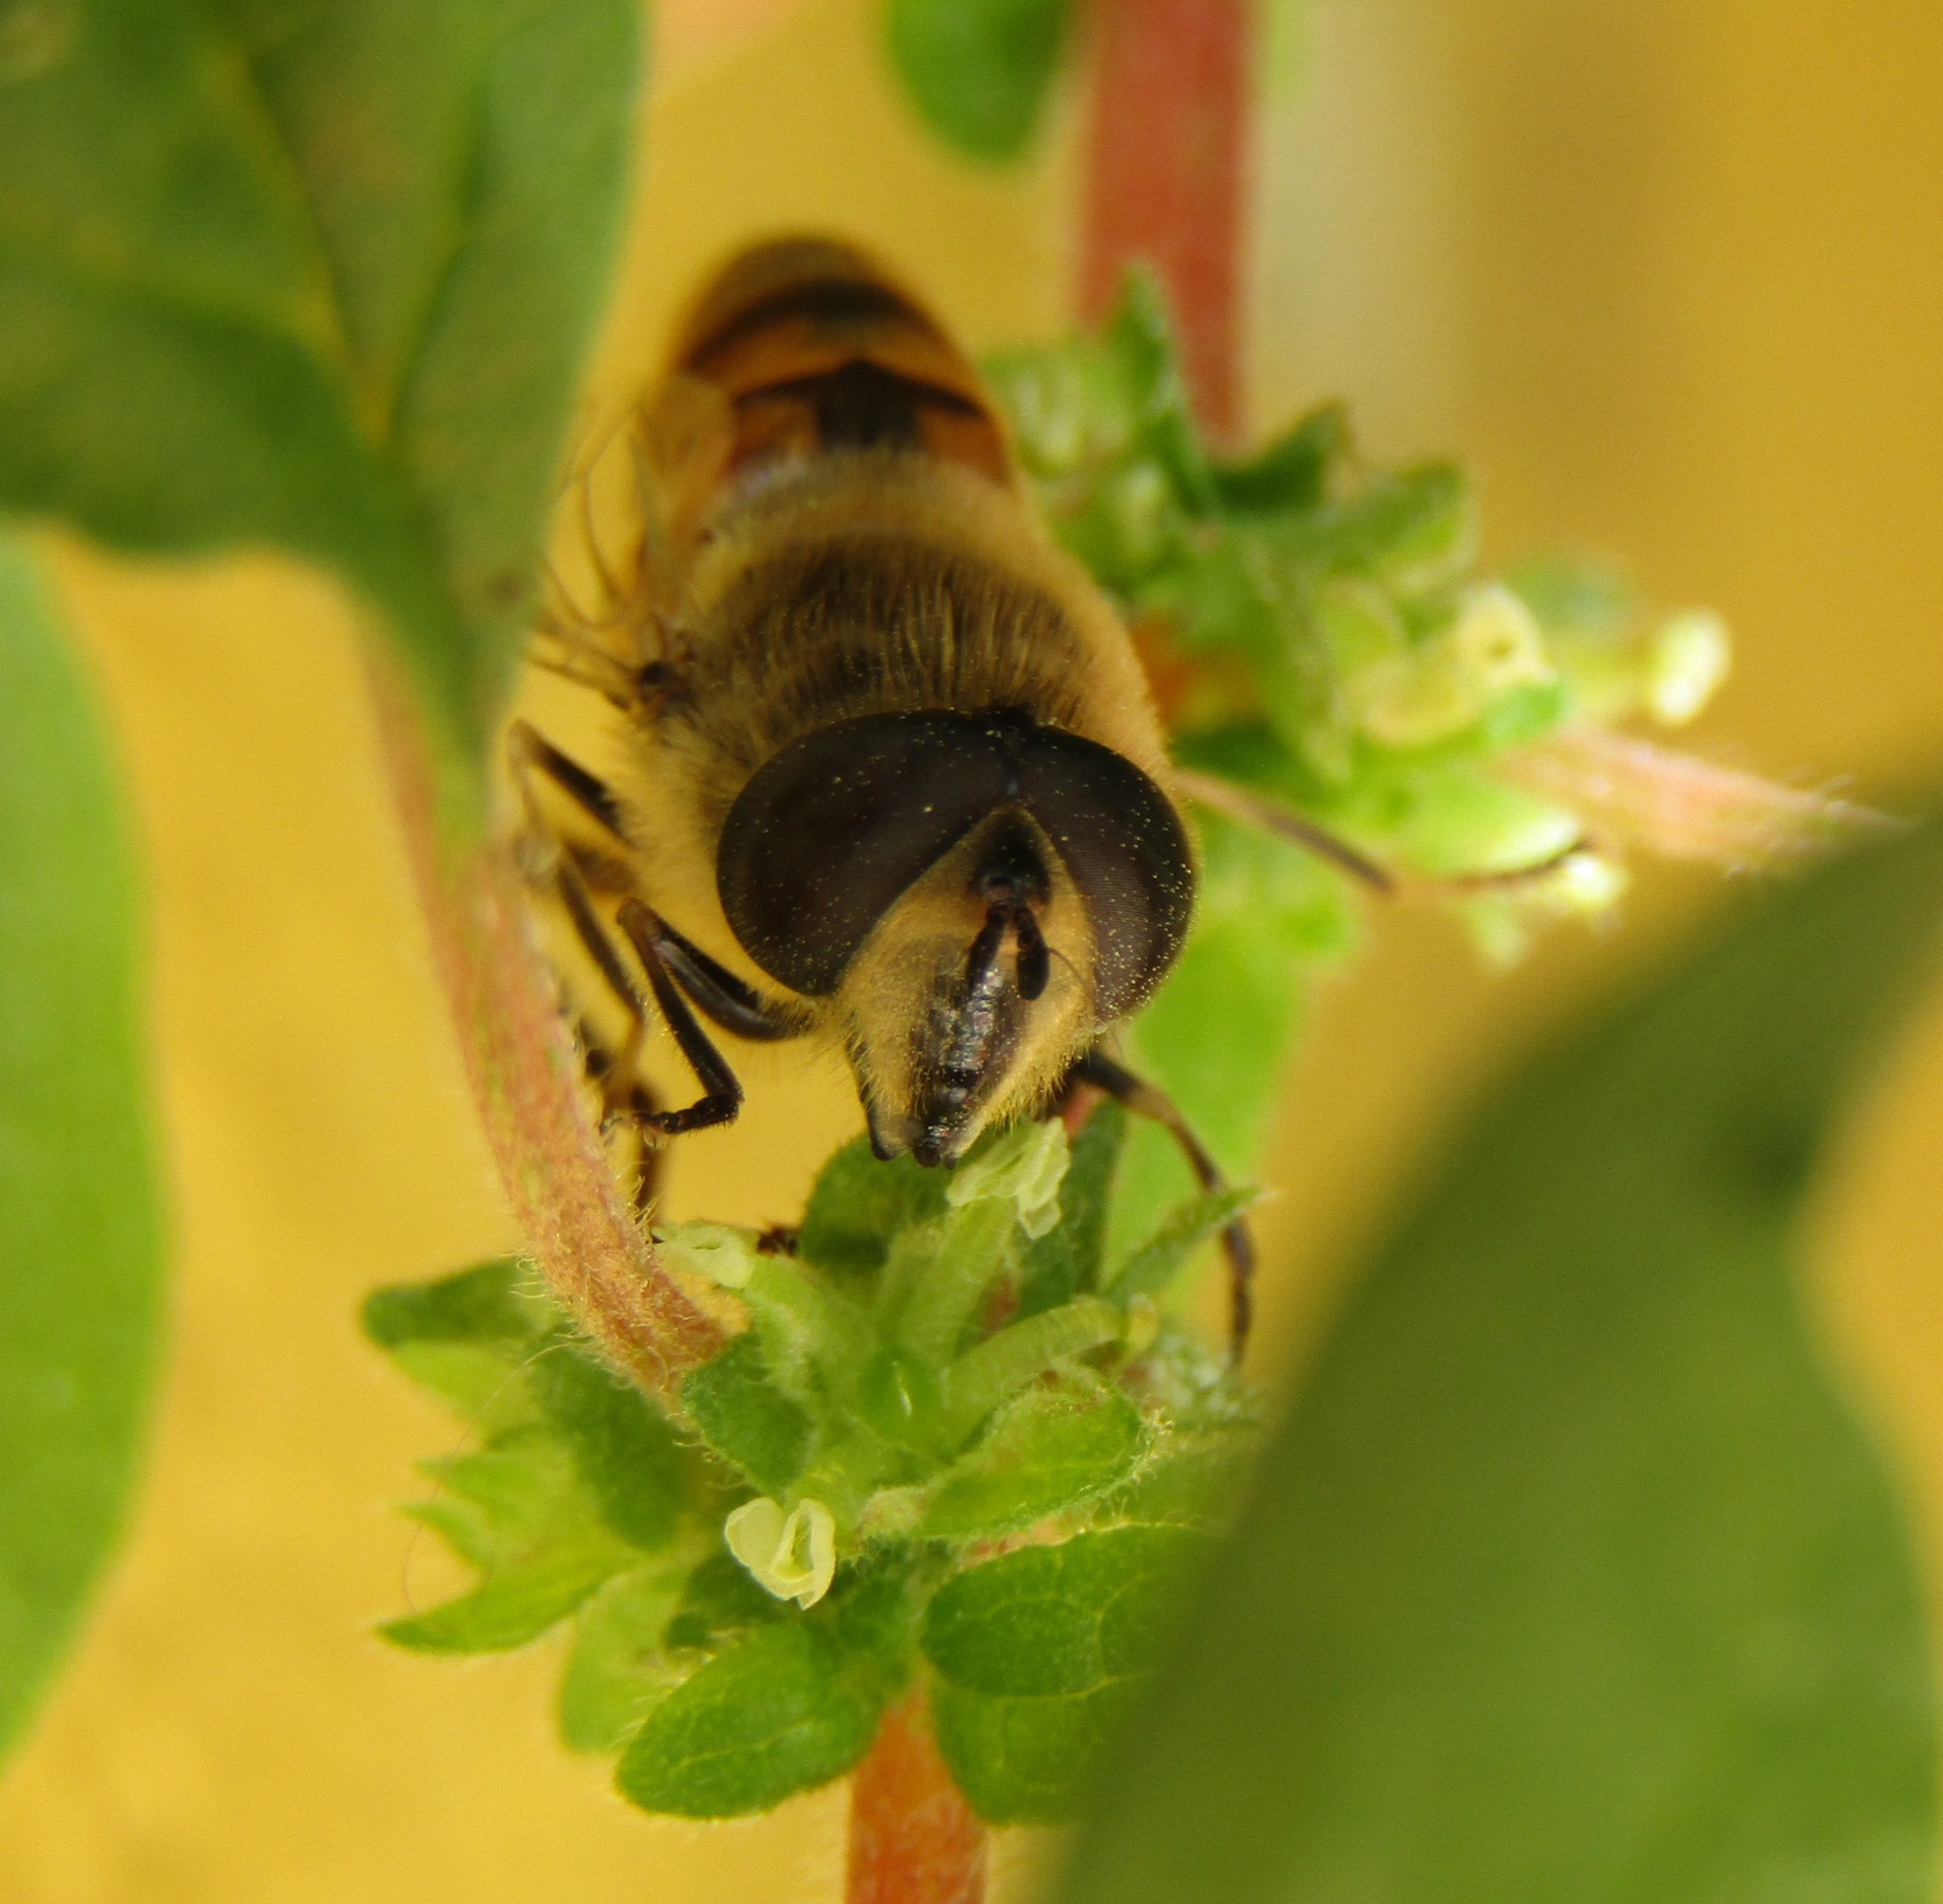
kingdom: Animalia
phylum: Arthropoda
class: Insecta
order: Diptera
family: Syrphidae
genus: Eristalis
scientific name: Eristalis tenax
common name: Drone fly
